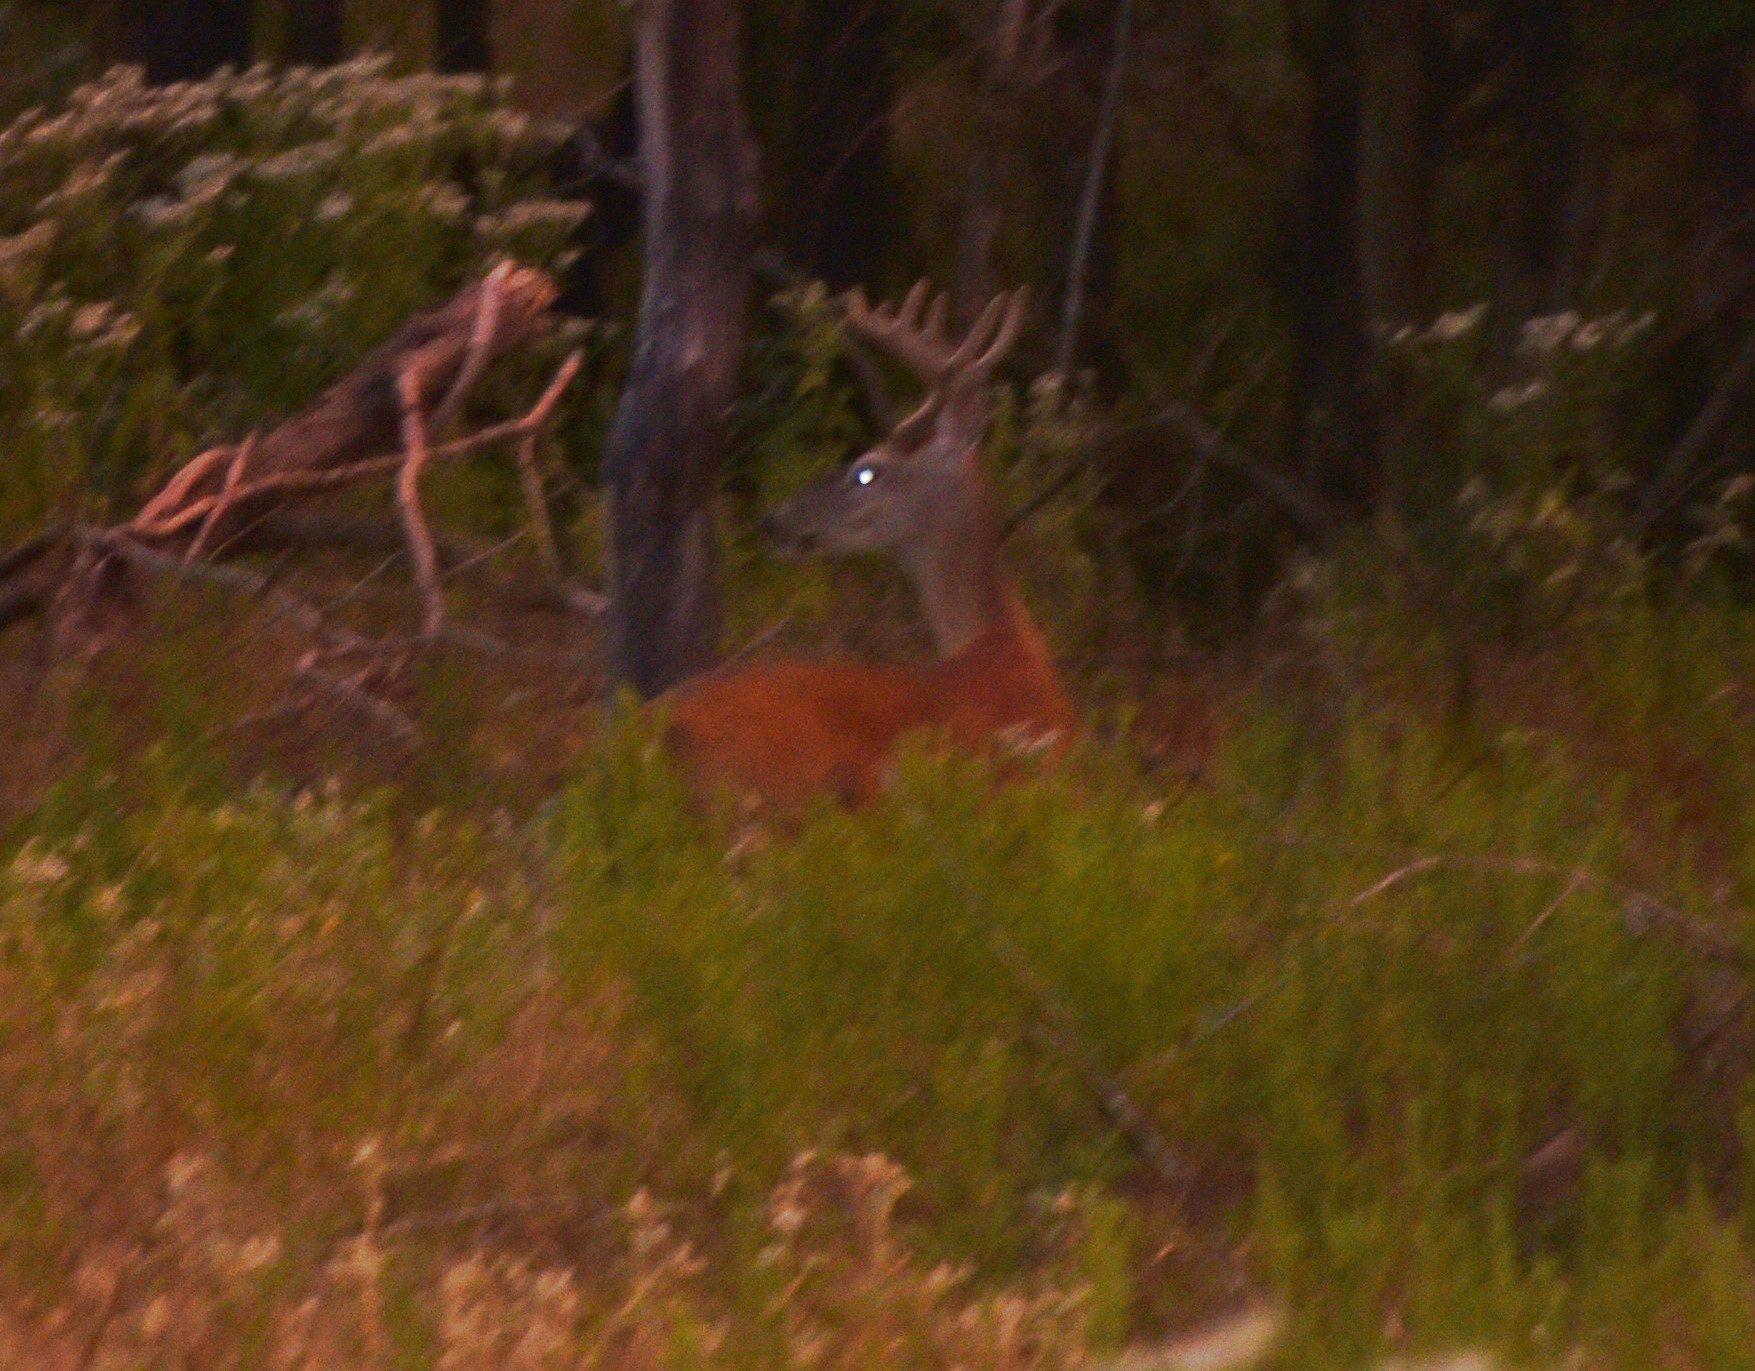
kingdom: Animalia
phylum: Chordata
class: Mammalia
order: Artiodactyla
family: Cervidae
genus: Odocoileus
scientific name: Odocoileus virginianus
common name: White-tailed deer
